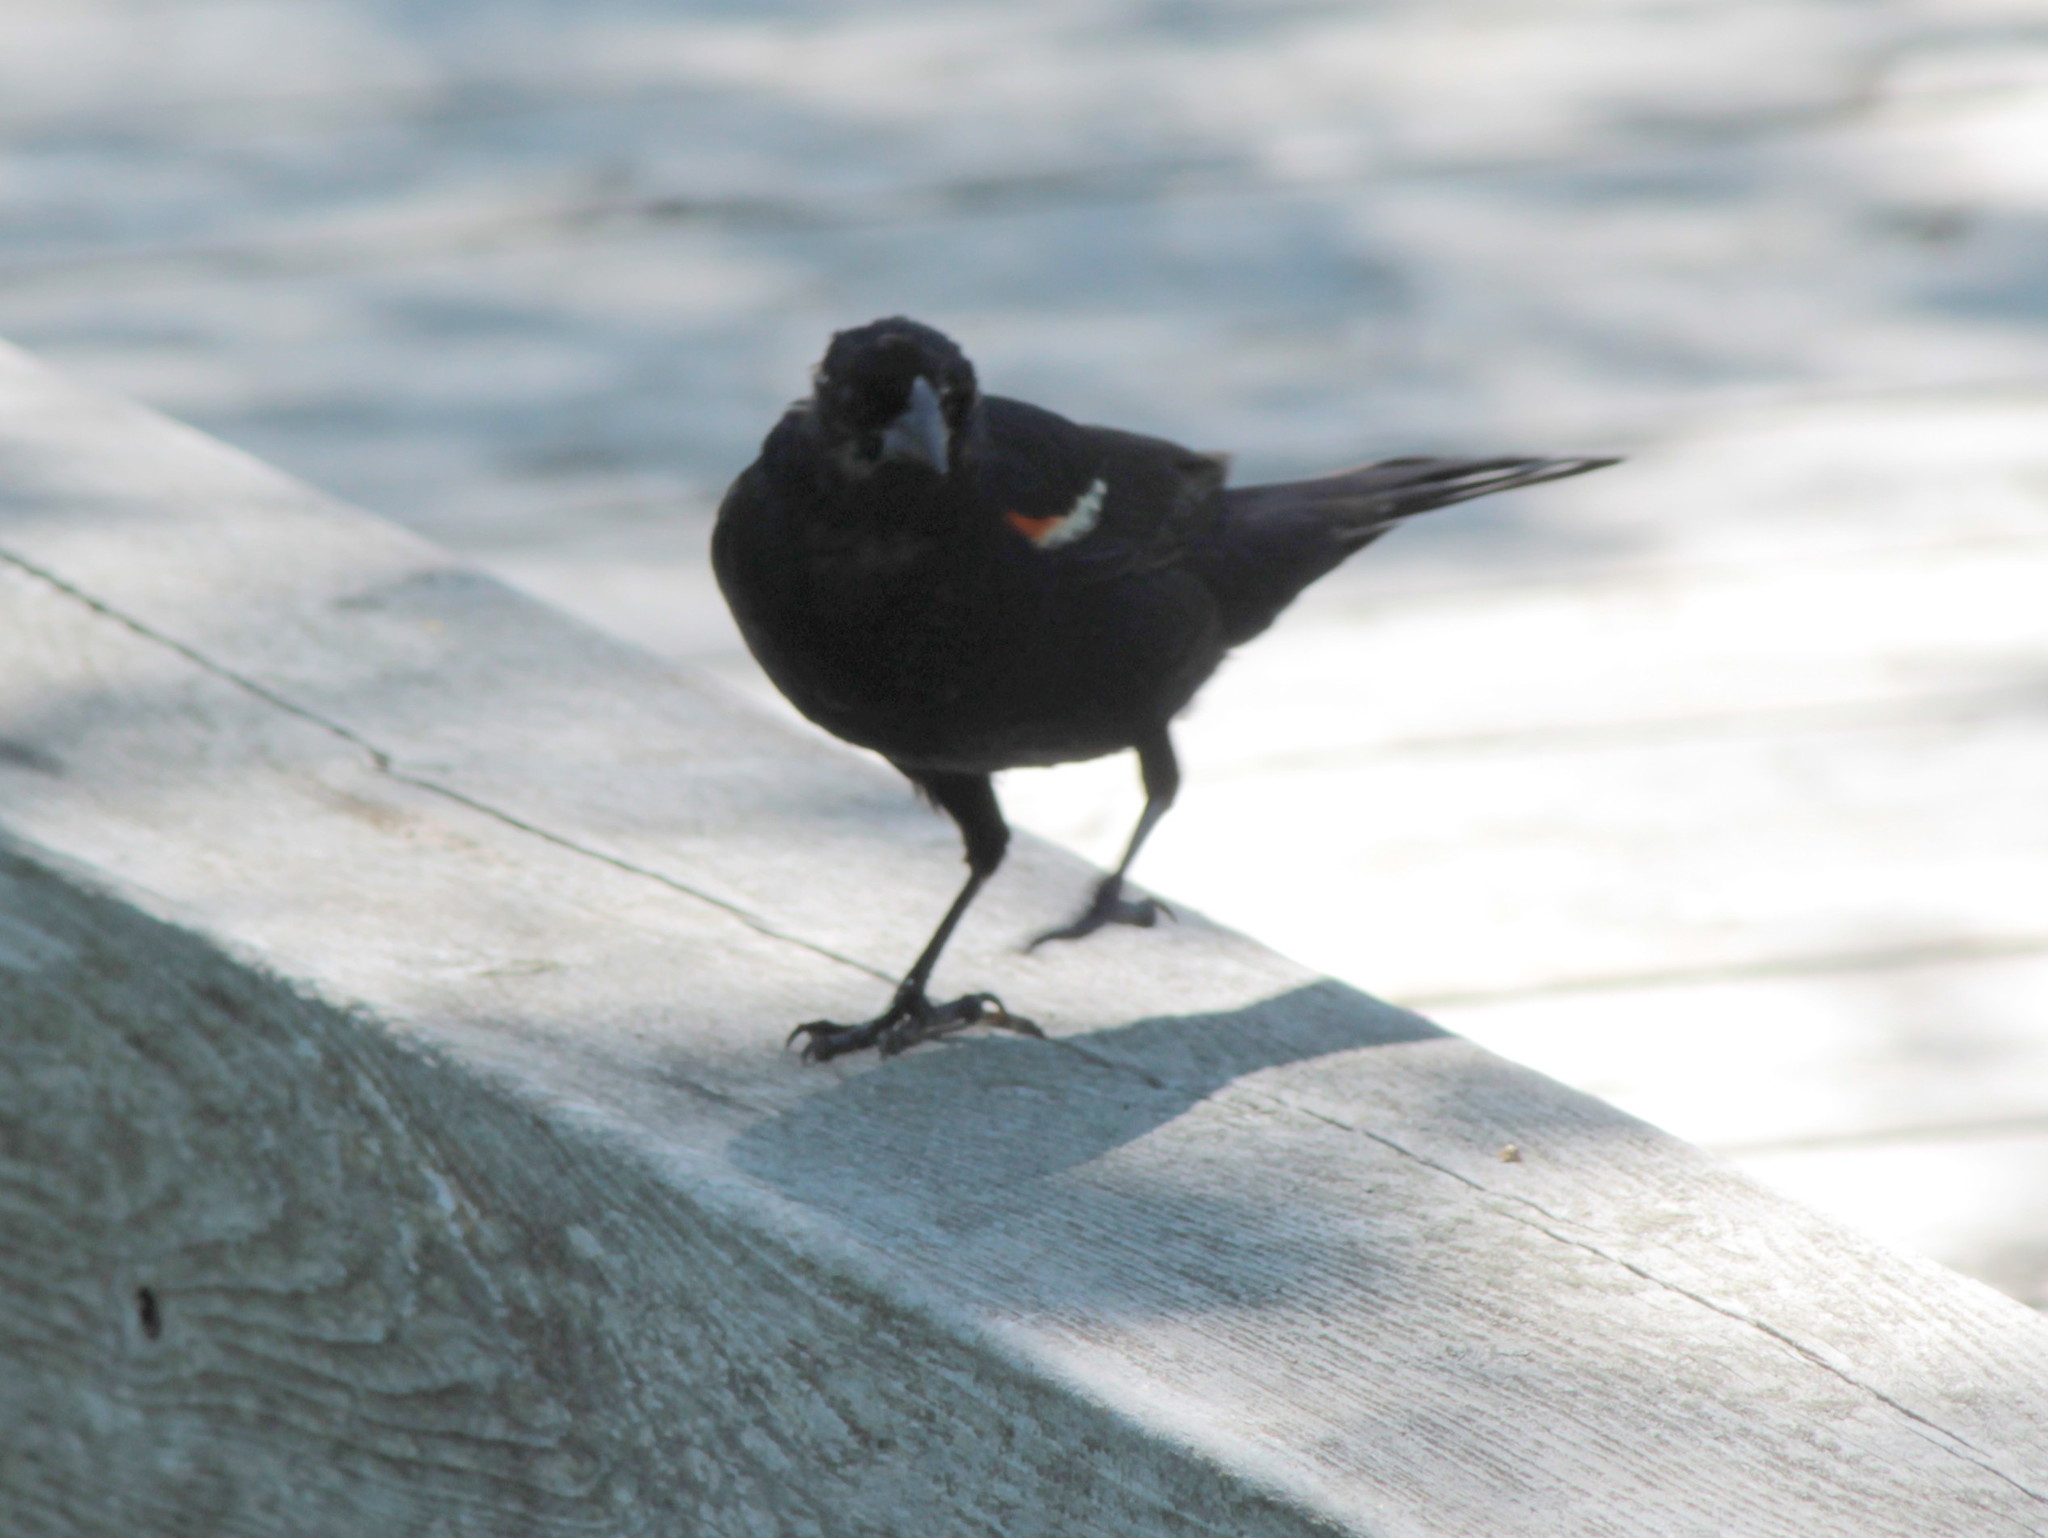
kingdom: Animalia
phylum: Chordata
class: Aves
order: Passeriformes
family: Icteridae
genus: Agelaius
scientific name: Agelaius phoeniceus
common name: Red-winged blackbird
